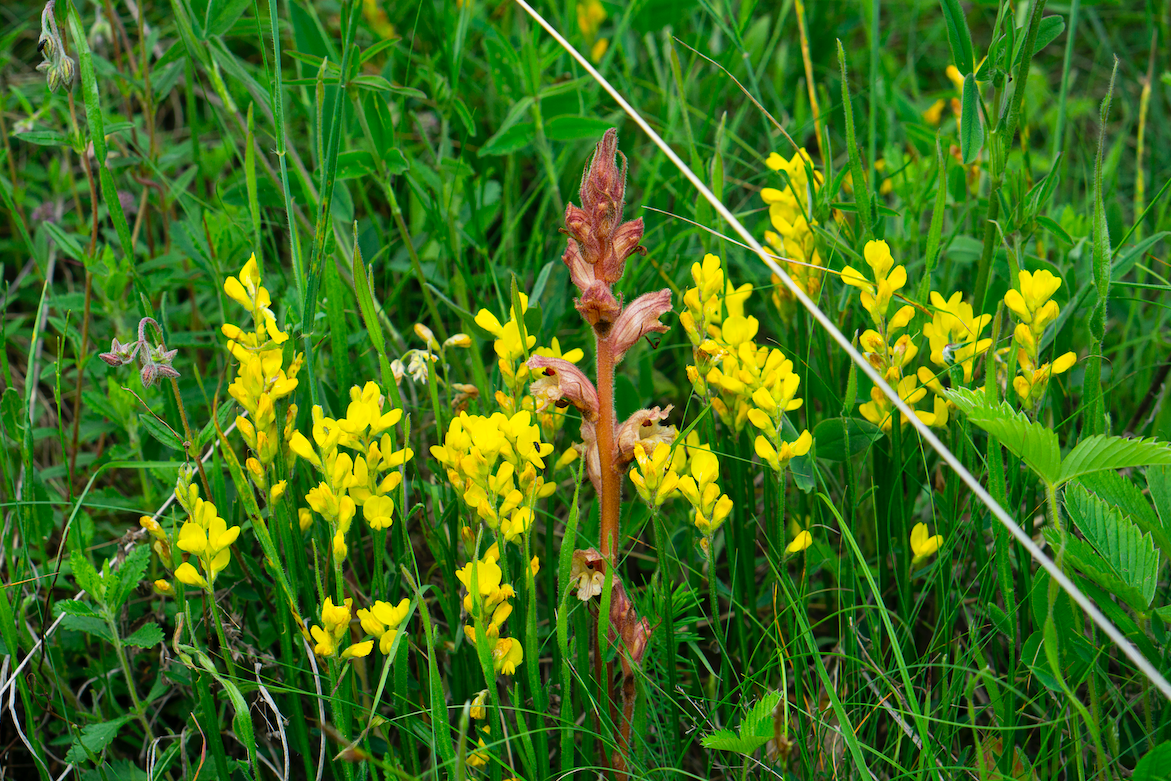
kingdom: Plantae
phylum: Tracheophyta
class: Magnoliopsida
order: Lamiales
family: Orobanchaceae
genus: Orobanche
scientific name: Orobanche alba
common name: Thyme broomrape
